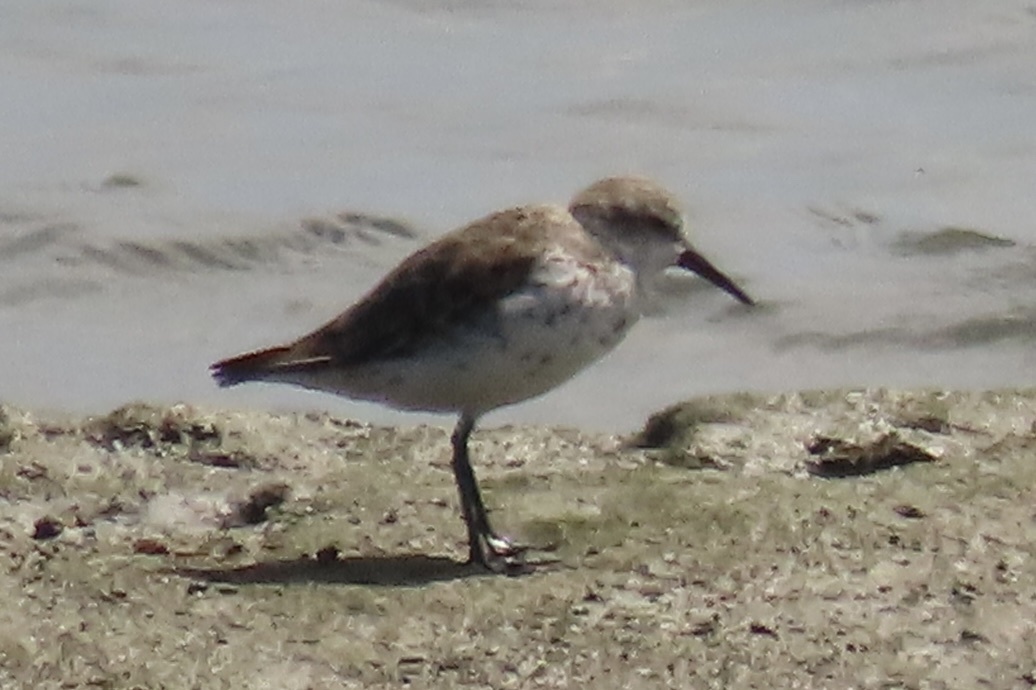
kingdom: Animalia
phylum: Chordata
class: Aves
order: Charadriiformes
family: Scolopacidae
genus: Calidris
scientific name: Calidris mauri
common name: Western sandpiper
